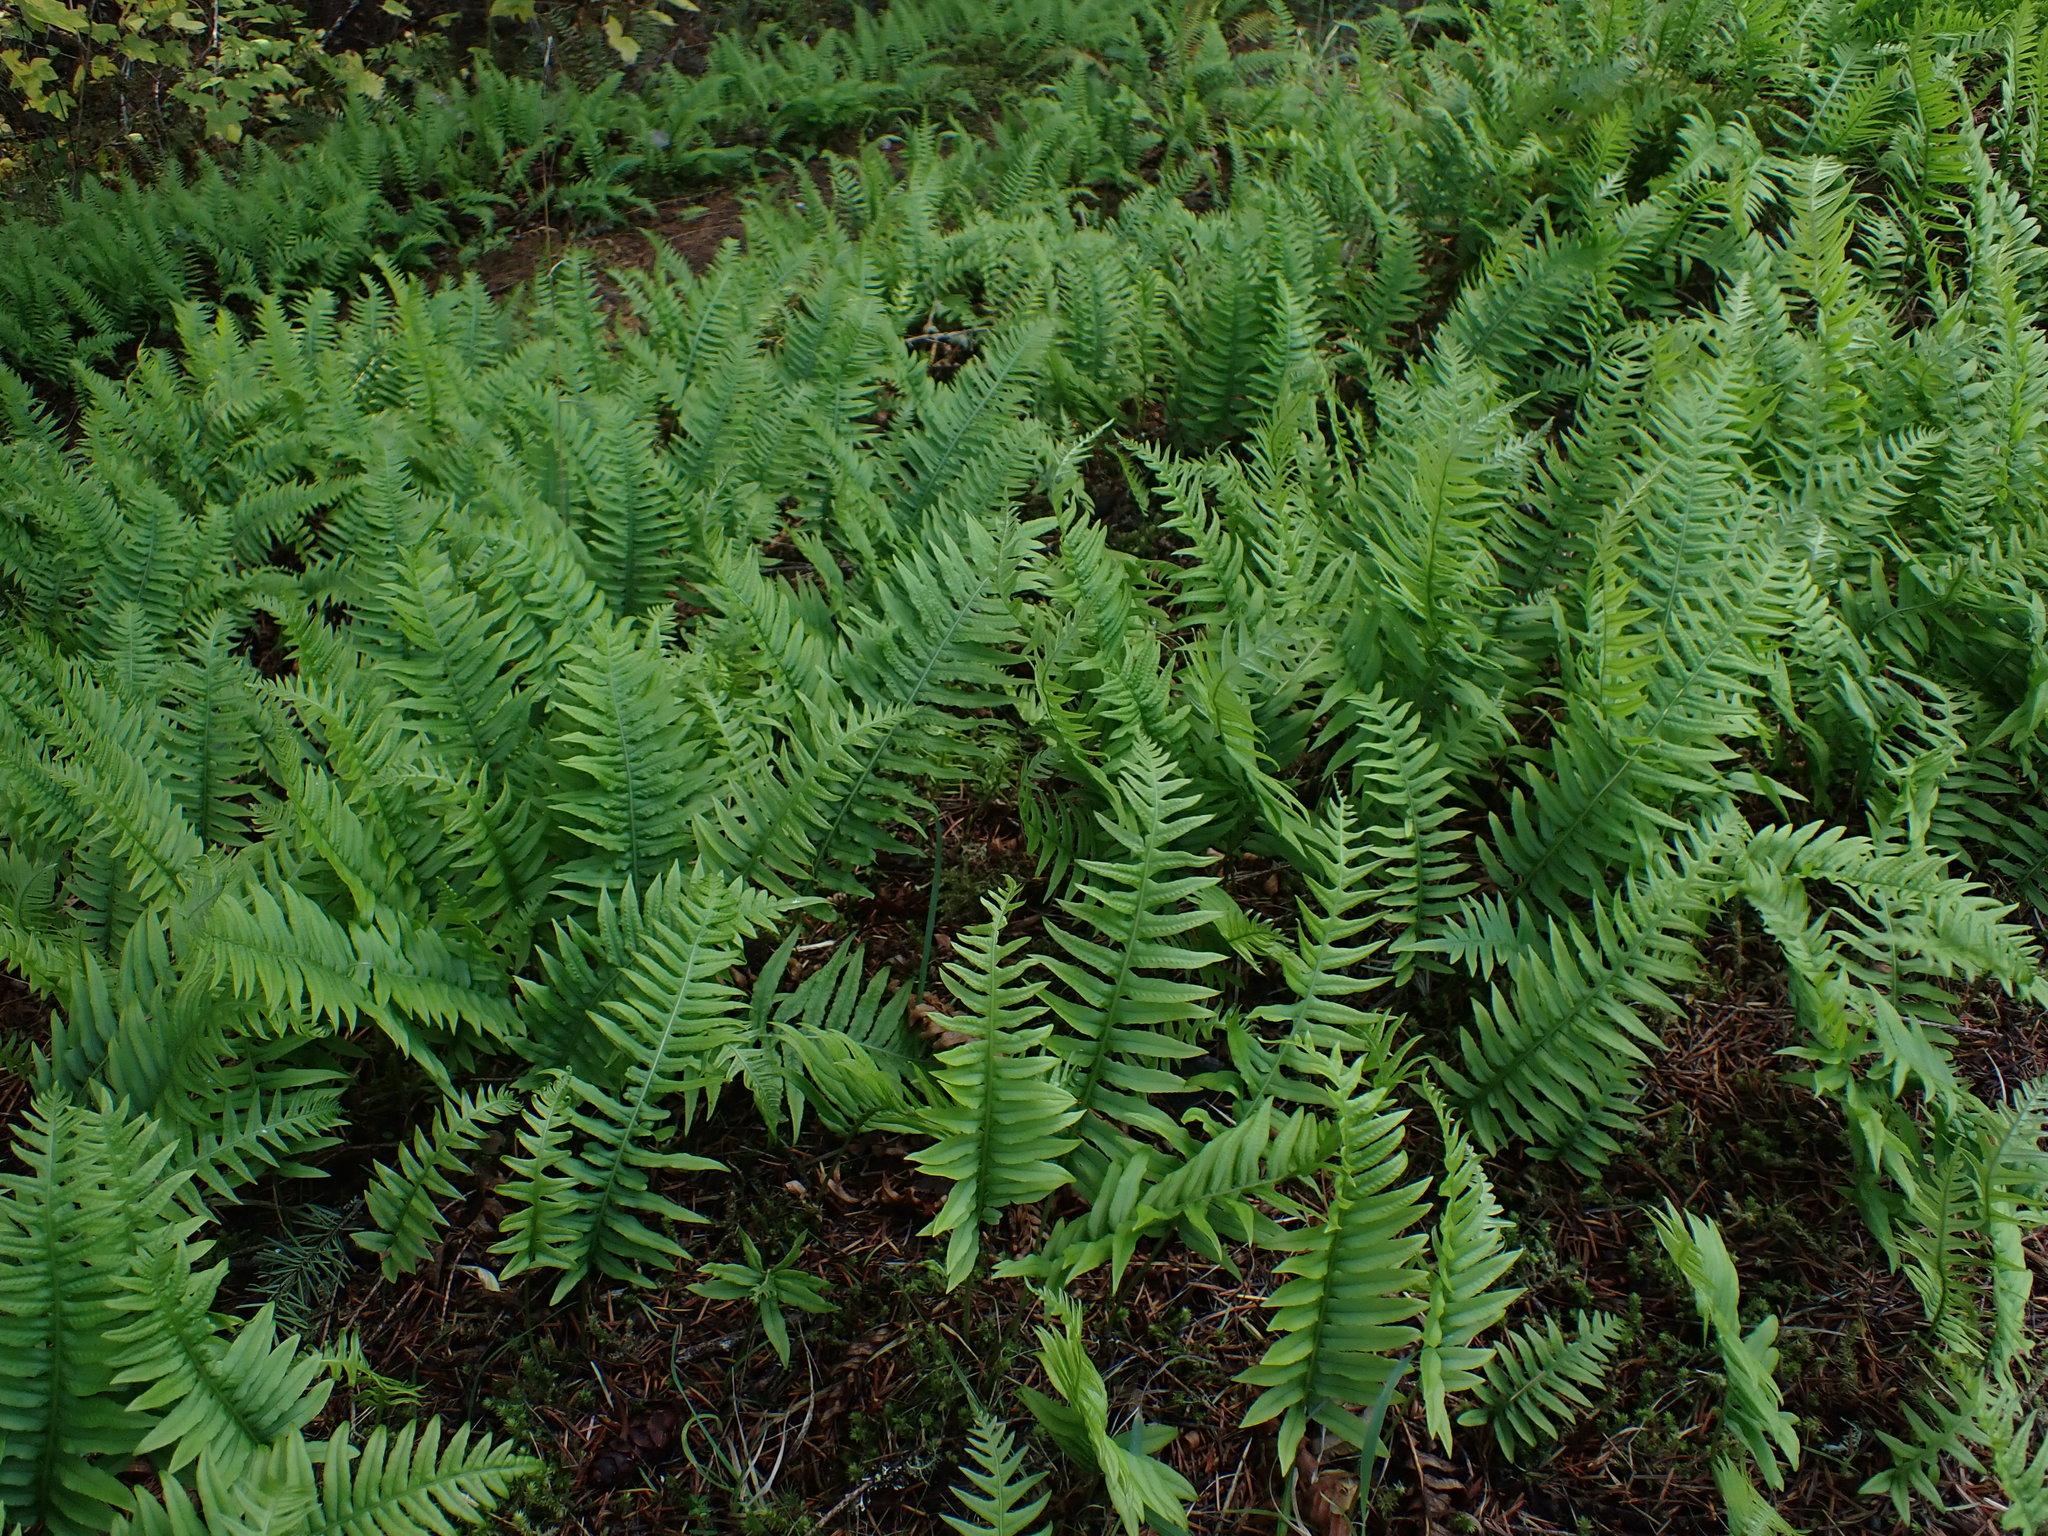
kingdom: Plantae
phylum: Tracheophyta
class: Polypodiopsida
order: Polypodiales
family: Polypodiaceae
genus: Polypodium
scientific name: Polypodium glycyrrhiza
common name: Licorice fern
